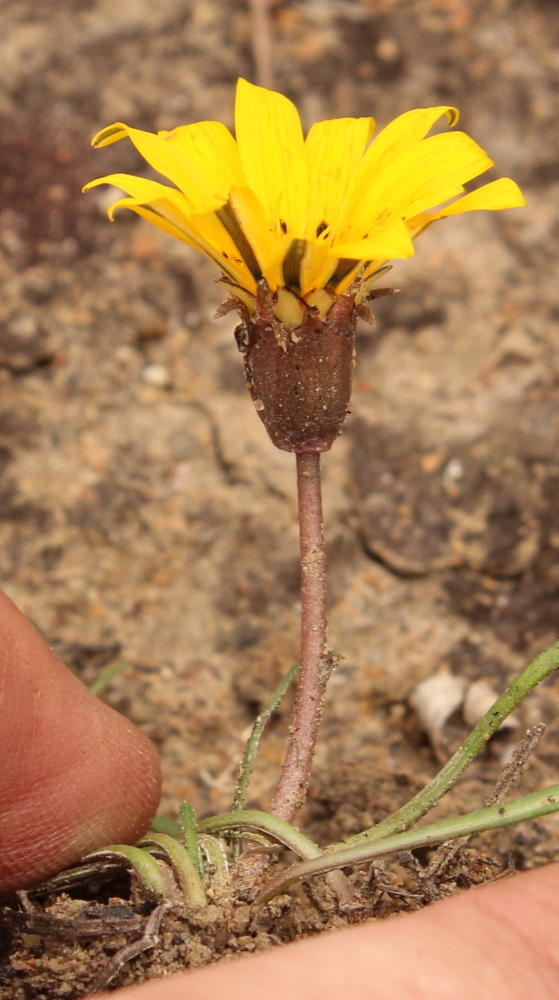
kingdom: Plantae
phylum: Tracheophyta
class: Magnoliopsida
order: Asterales
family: Asteraceae
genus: Gazania
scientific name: Gazania krebsiana
